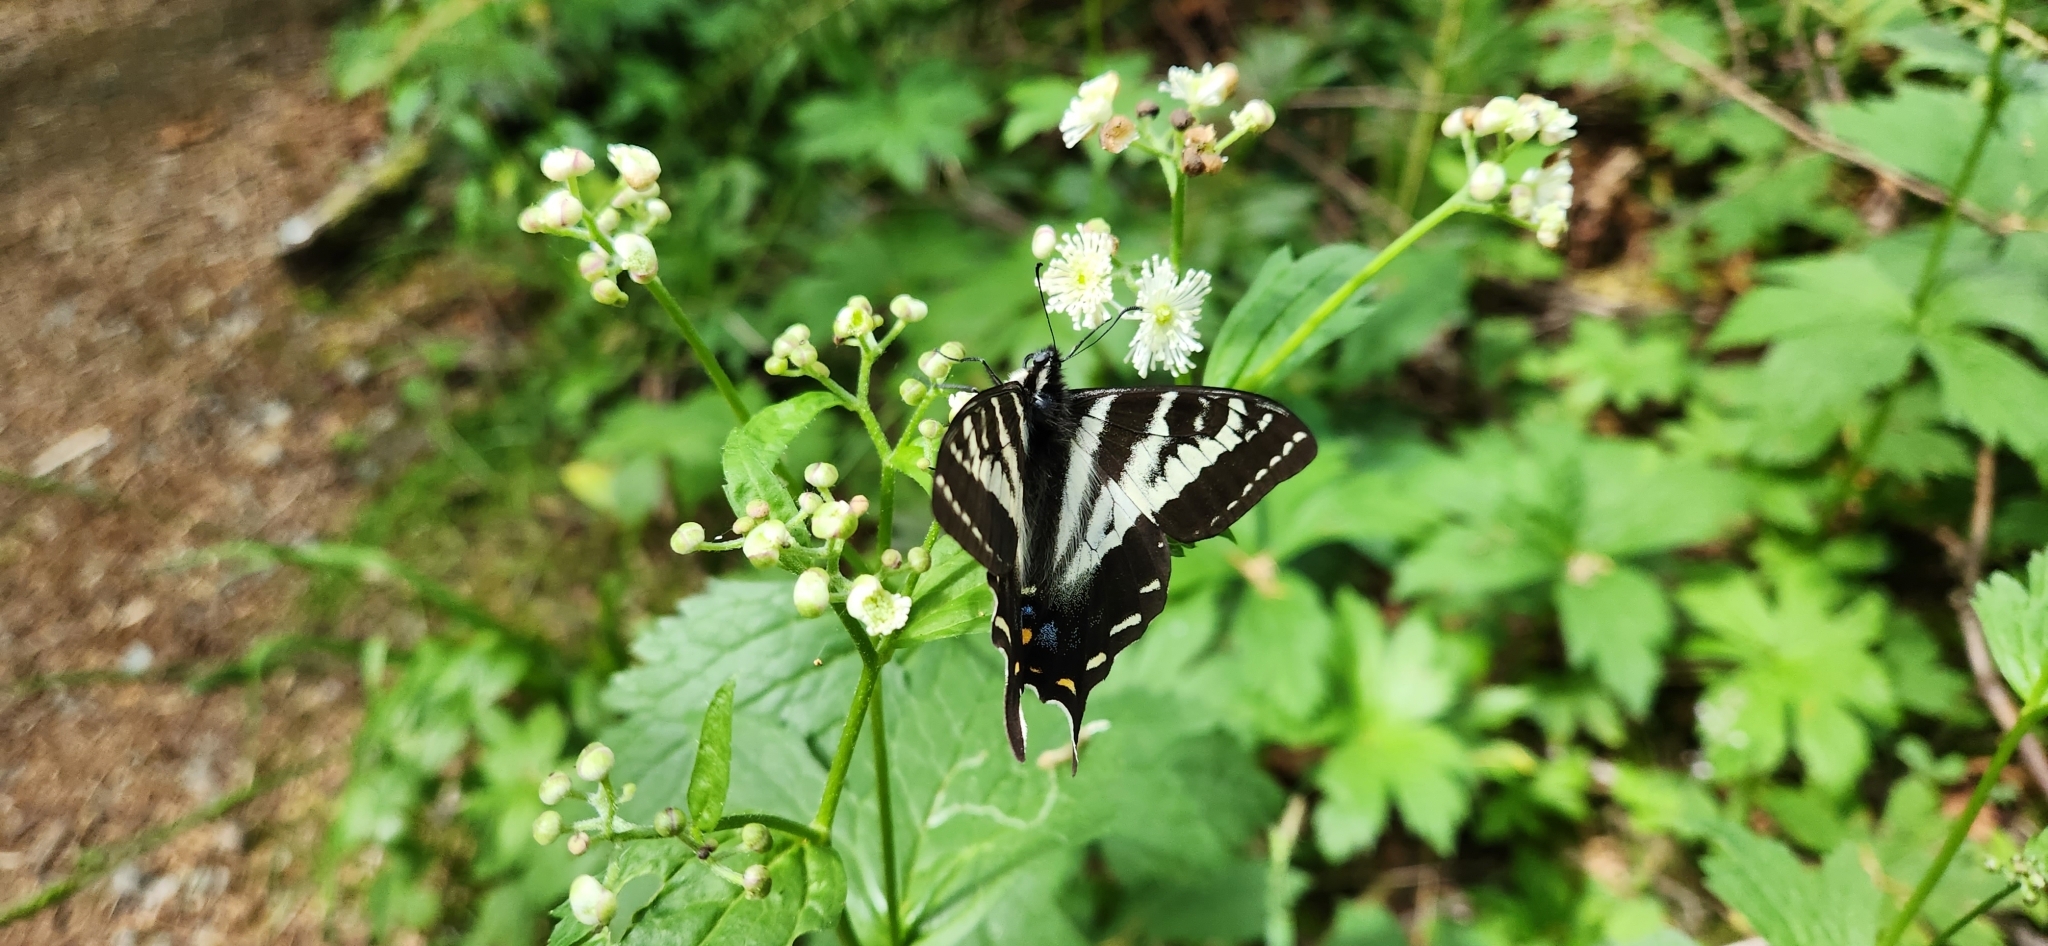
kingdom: Animalia
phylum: Arthropoda
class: Insecta
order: Lepidoptera
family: Papilionidae
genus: Papilio
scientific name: Papilio eurymedon
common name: Pale tiger swallowtail
